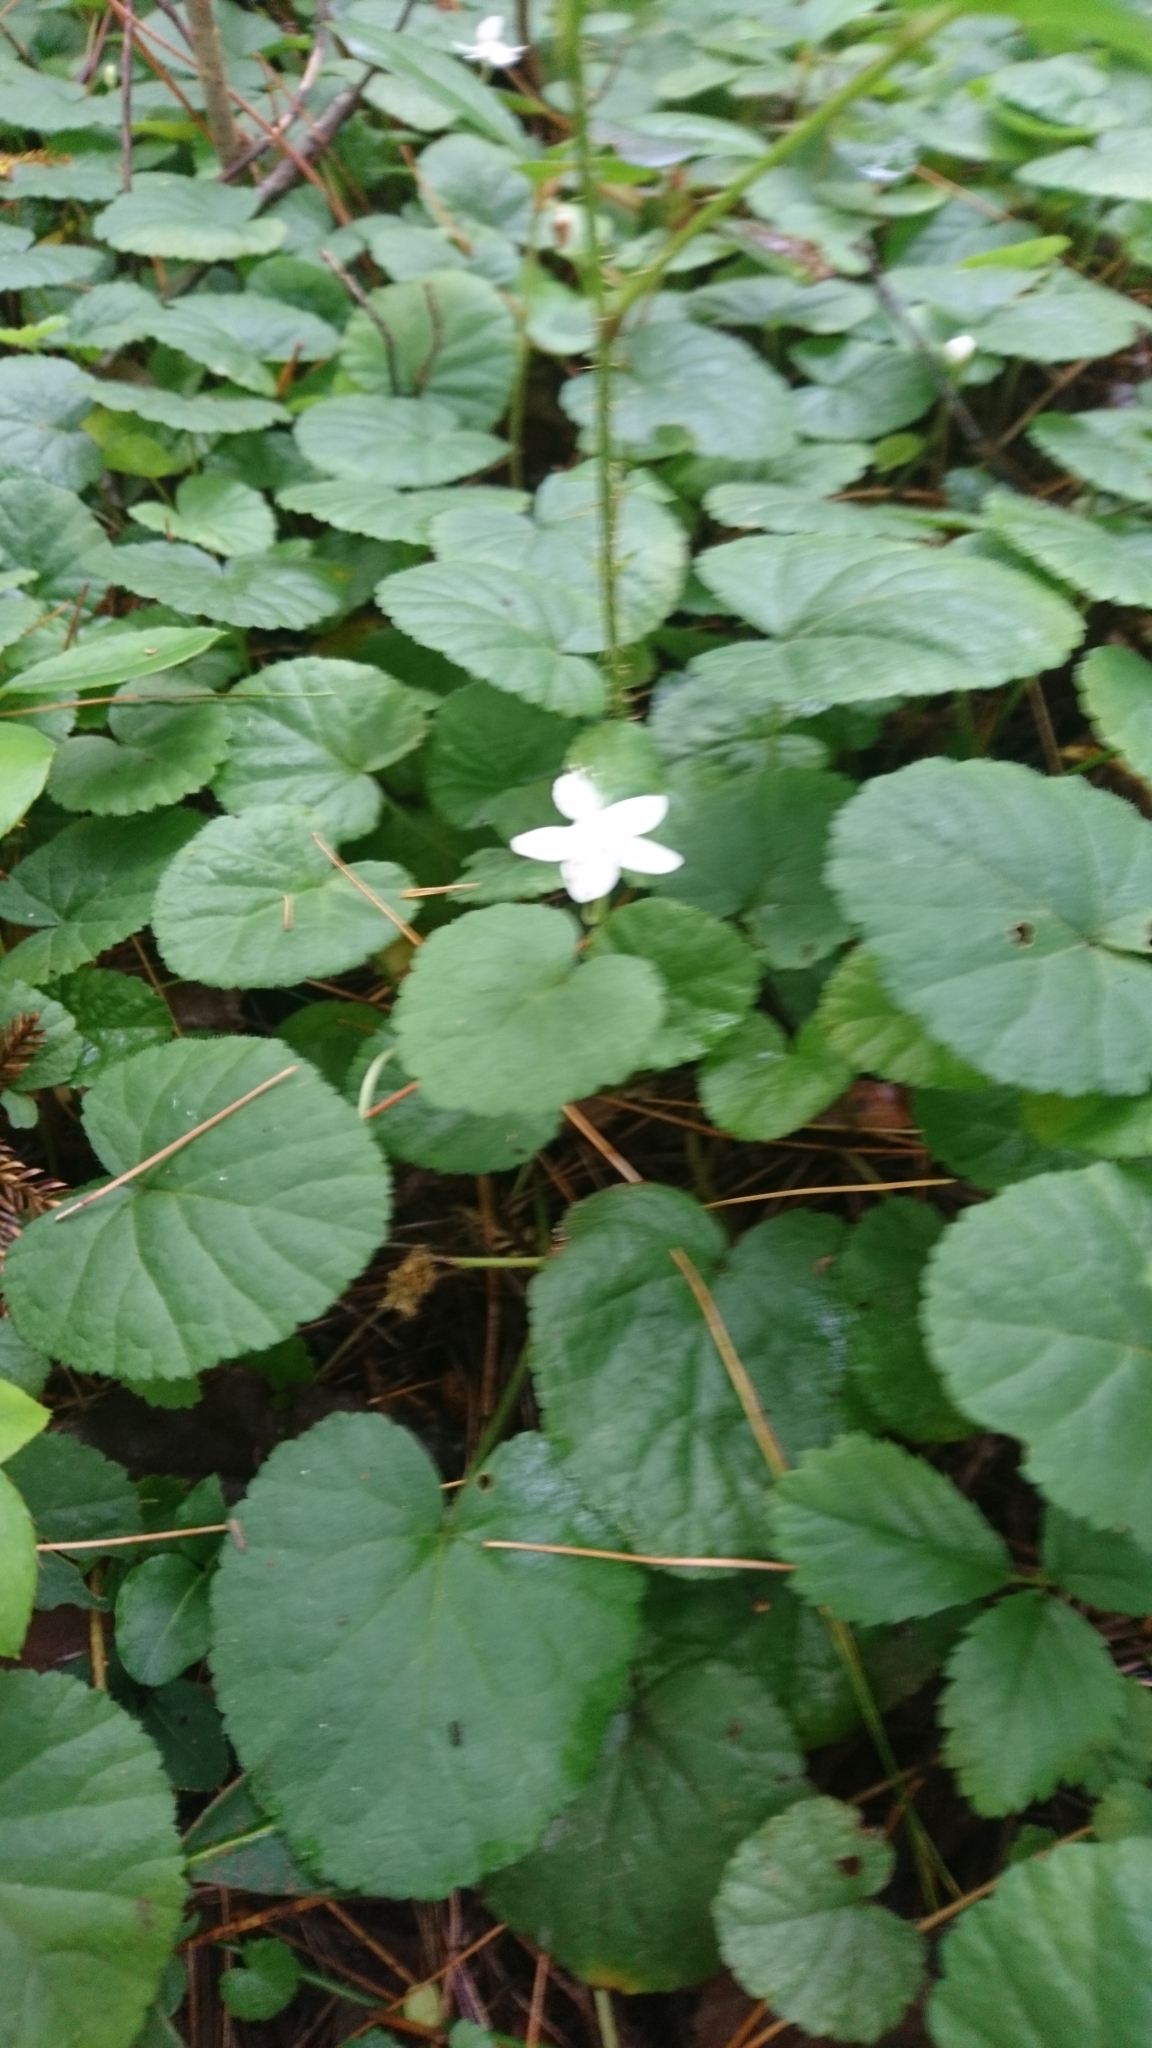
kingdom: Plantae
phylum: Tracheophyta
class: Magnoliopsida
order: Rosales
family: Rosaceae
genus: Dalibarda
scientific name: Dalibarda repens
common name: Dewdrop
